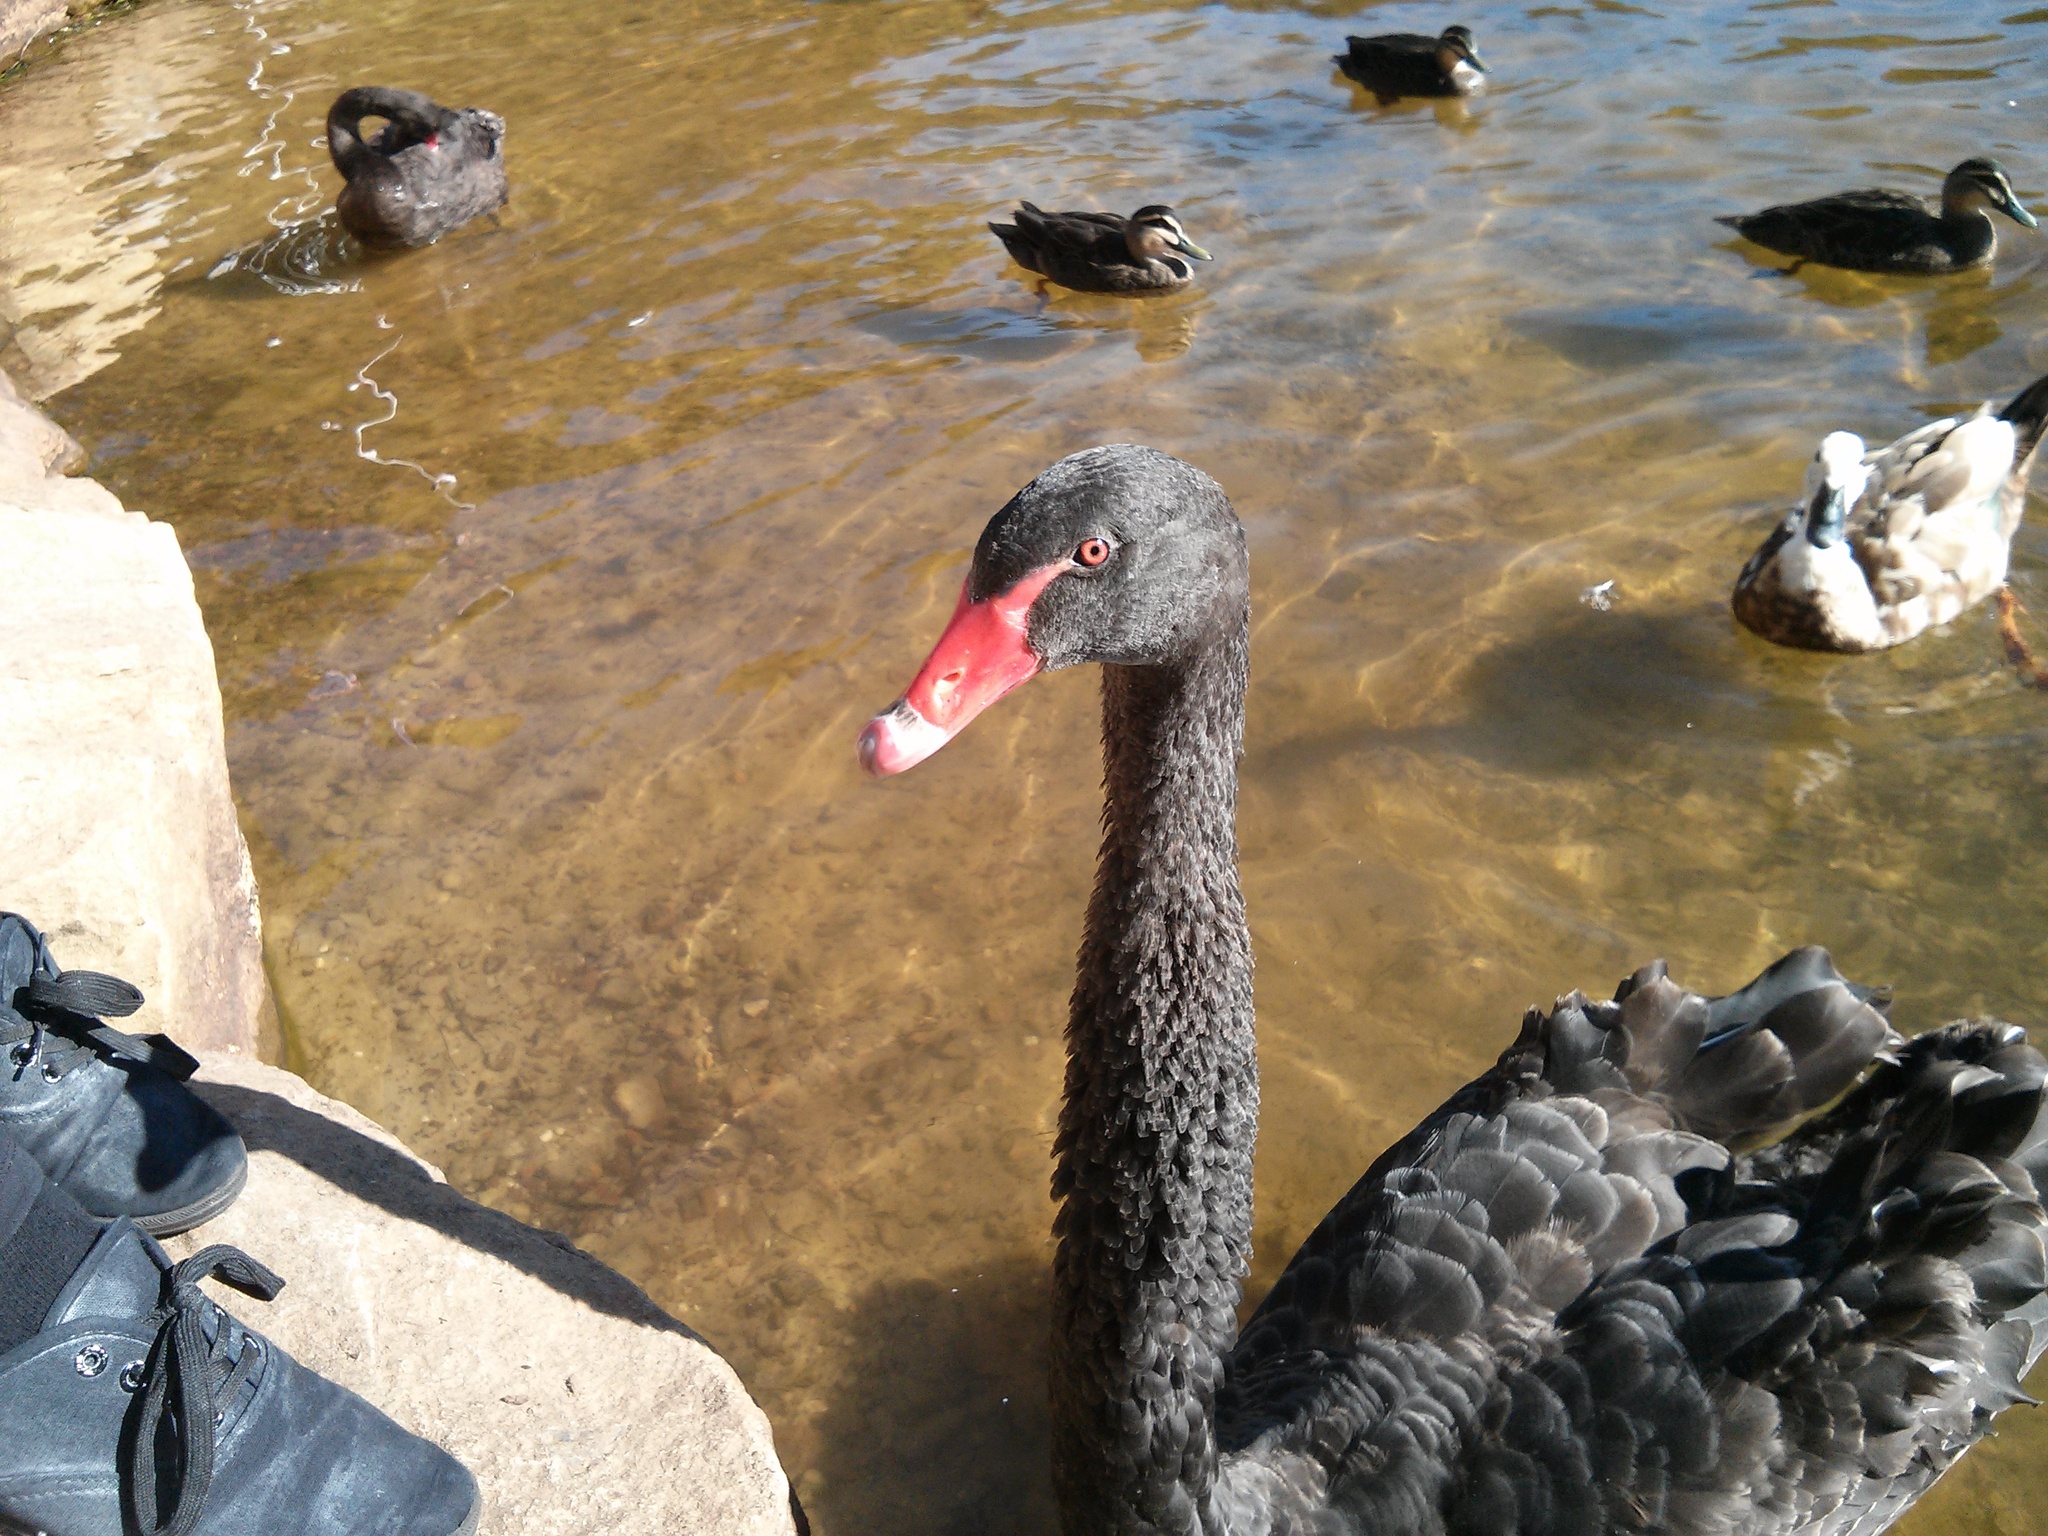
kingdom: Animalia
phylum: Chordata
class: Aves
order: Anseriformes
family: Anatidae
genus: Cygnus
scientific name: Cygnus atratus
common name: Black swan
